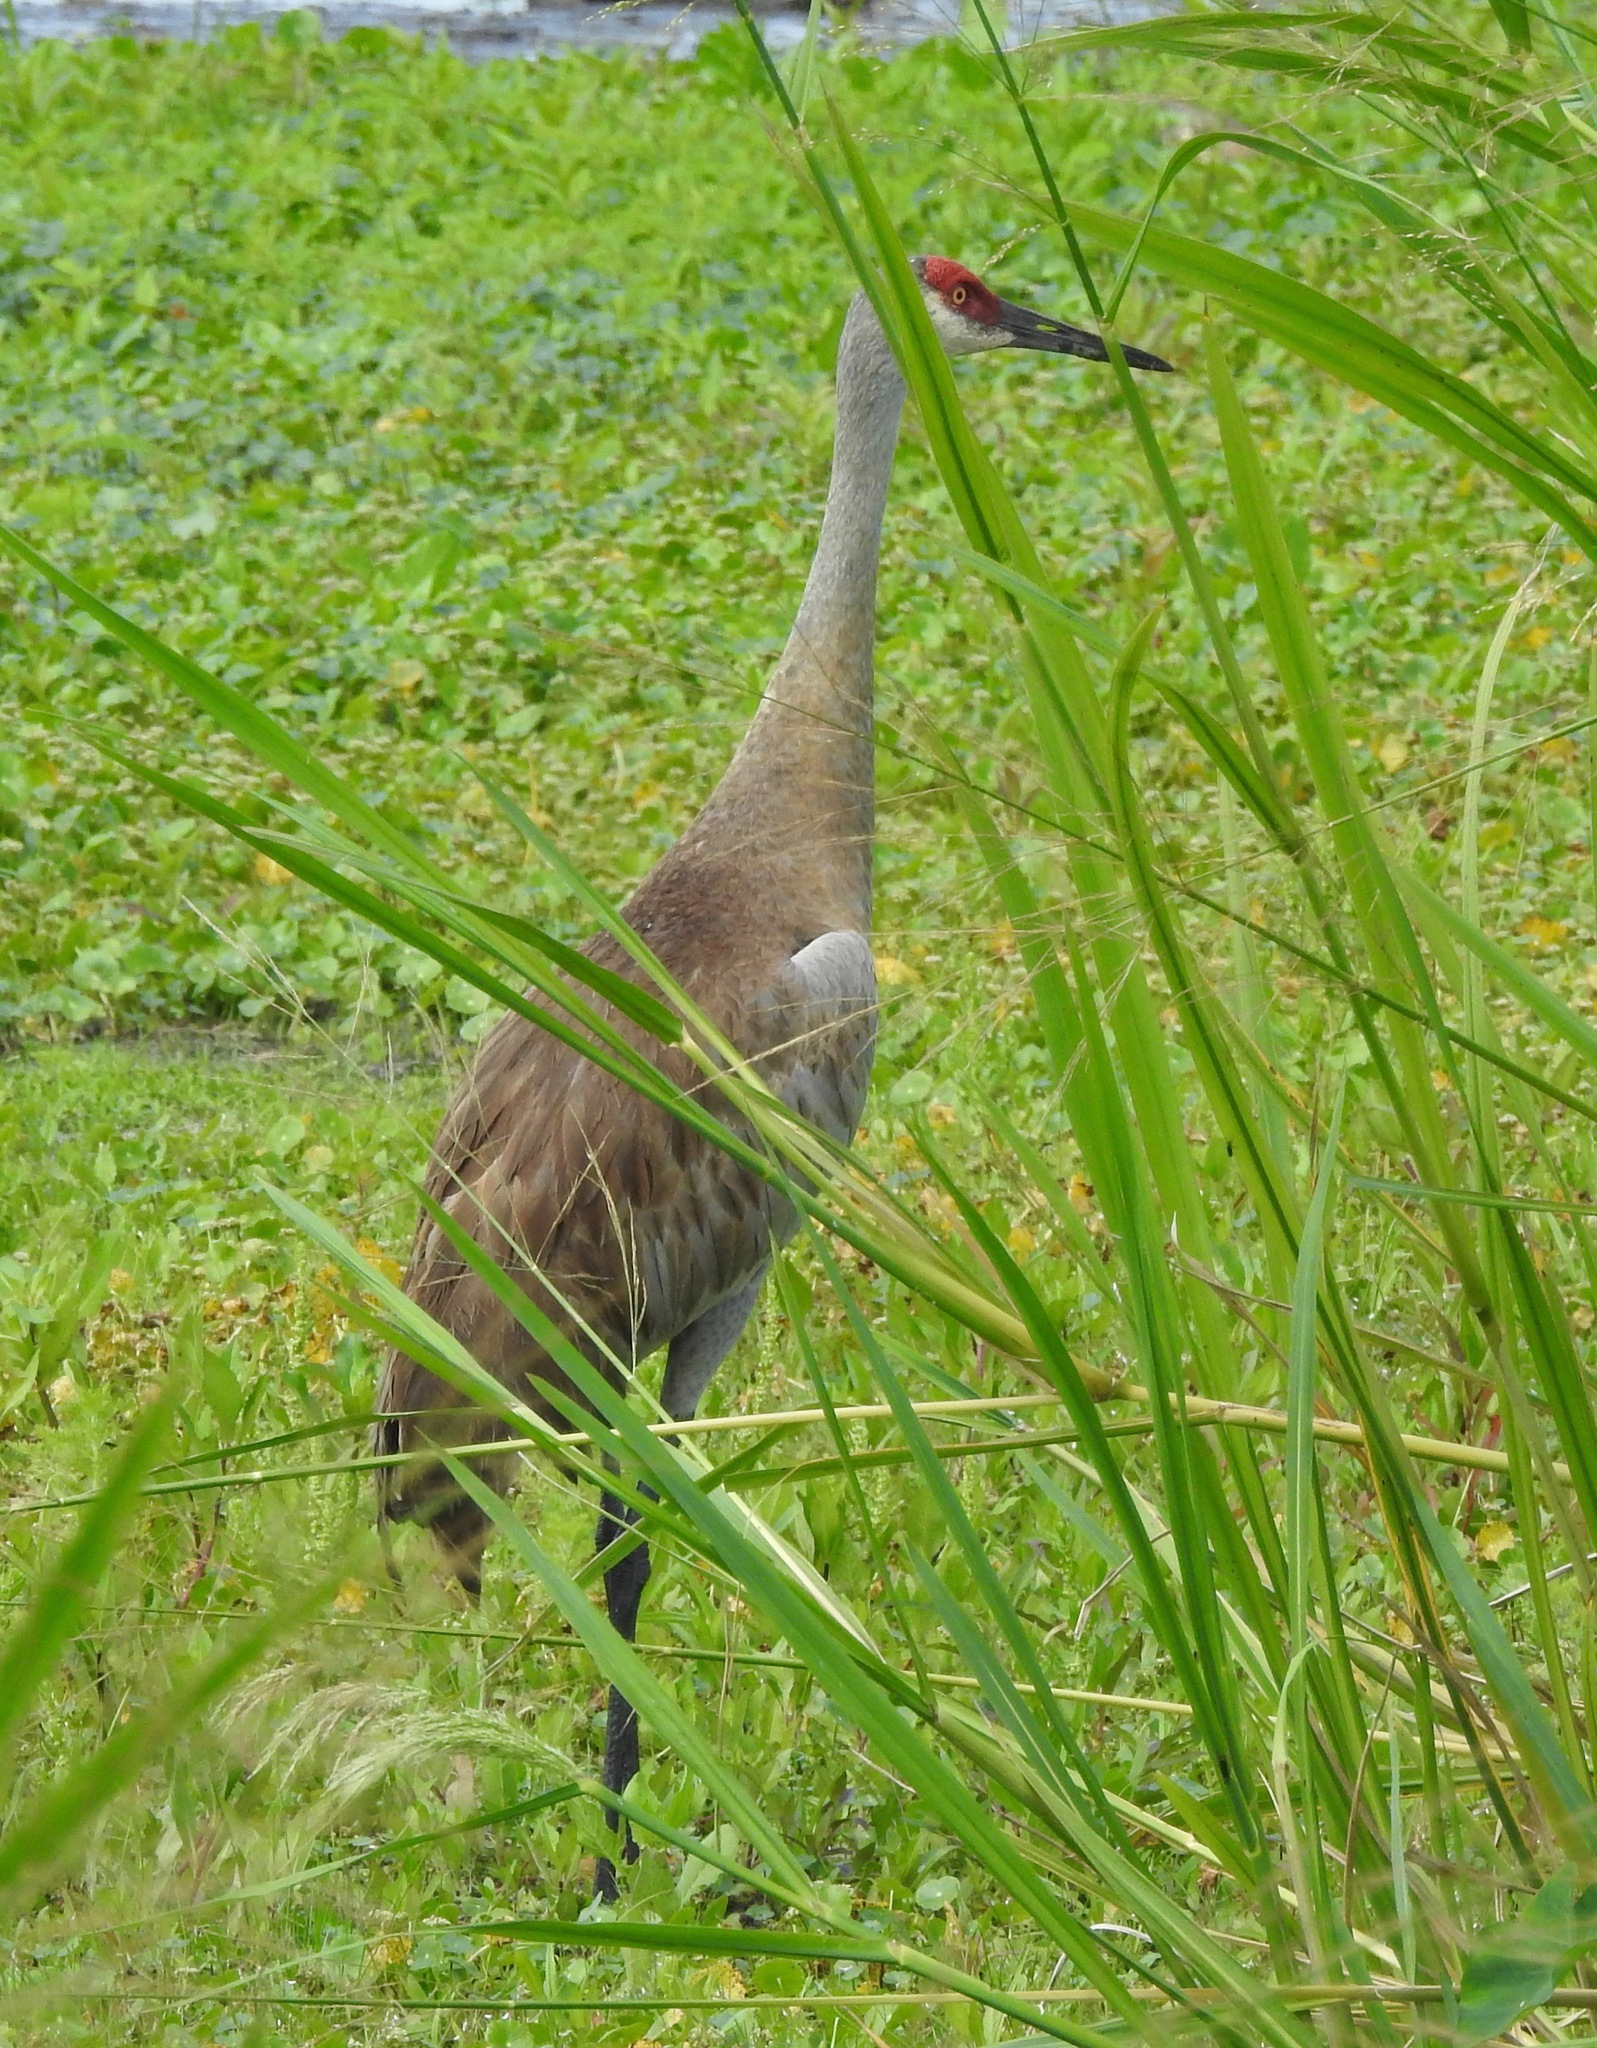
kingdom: Animalia
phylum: Chordata
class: Aves
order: Gruiformes
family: Gruidae
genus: Grus
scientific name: Grus canadensis
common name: Sandhill crane
